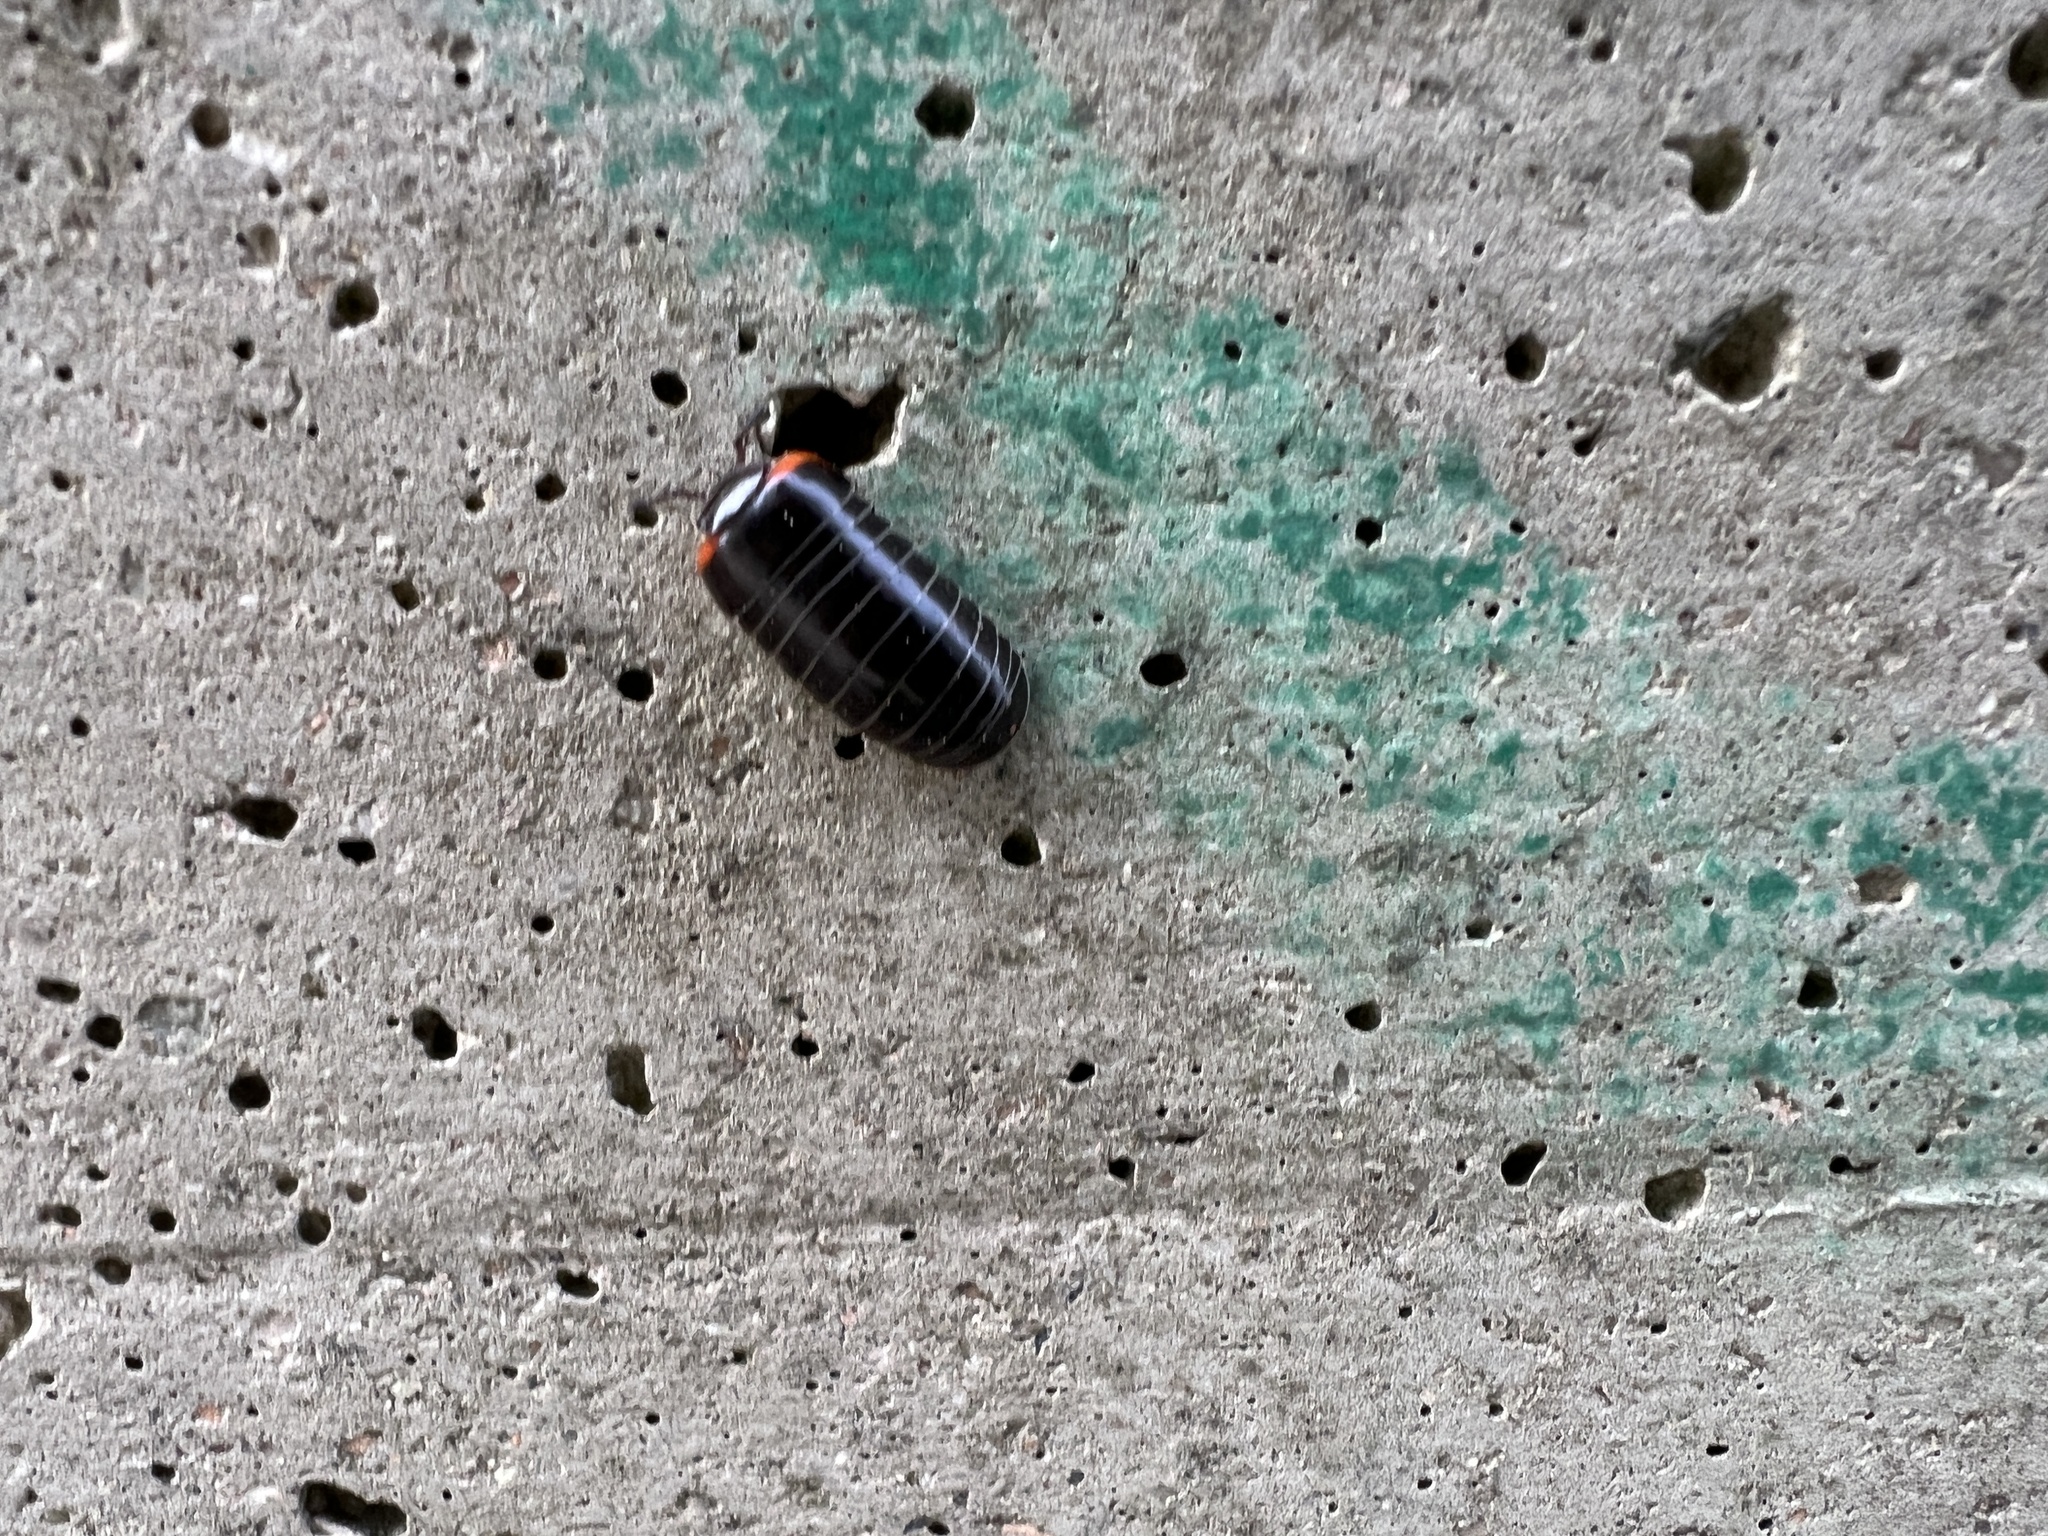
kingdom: Animalia
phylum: Arthropoda
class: Diplopoda
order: Glomerida
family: Glomeridae
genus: Glomeris
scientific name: Glomeris romana
